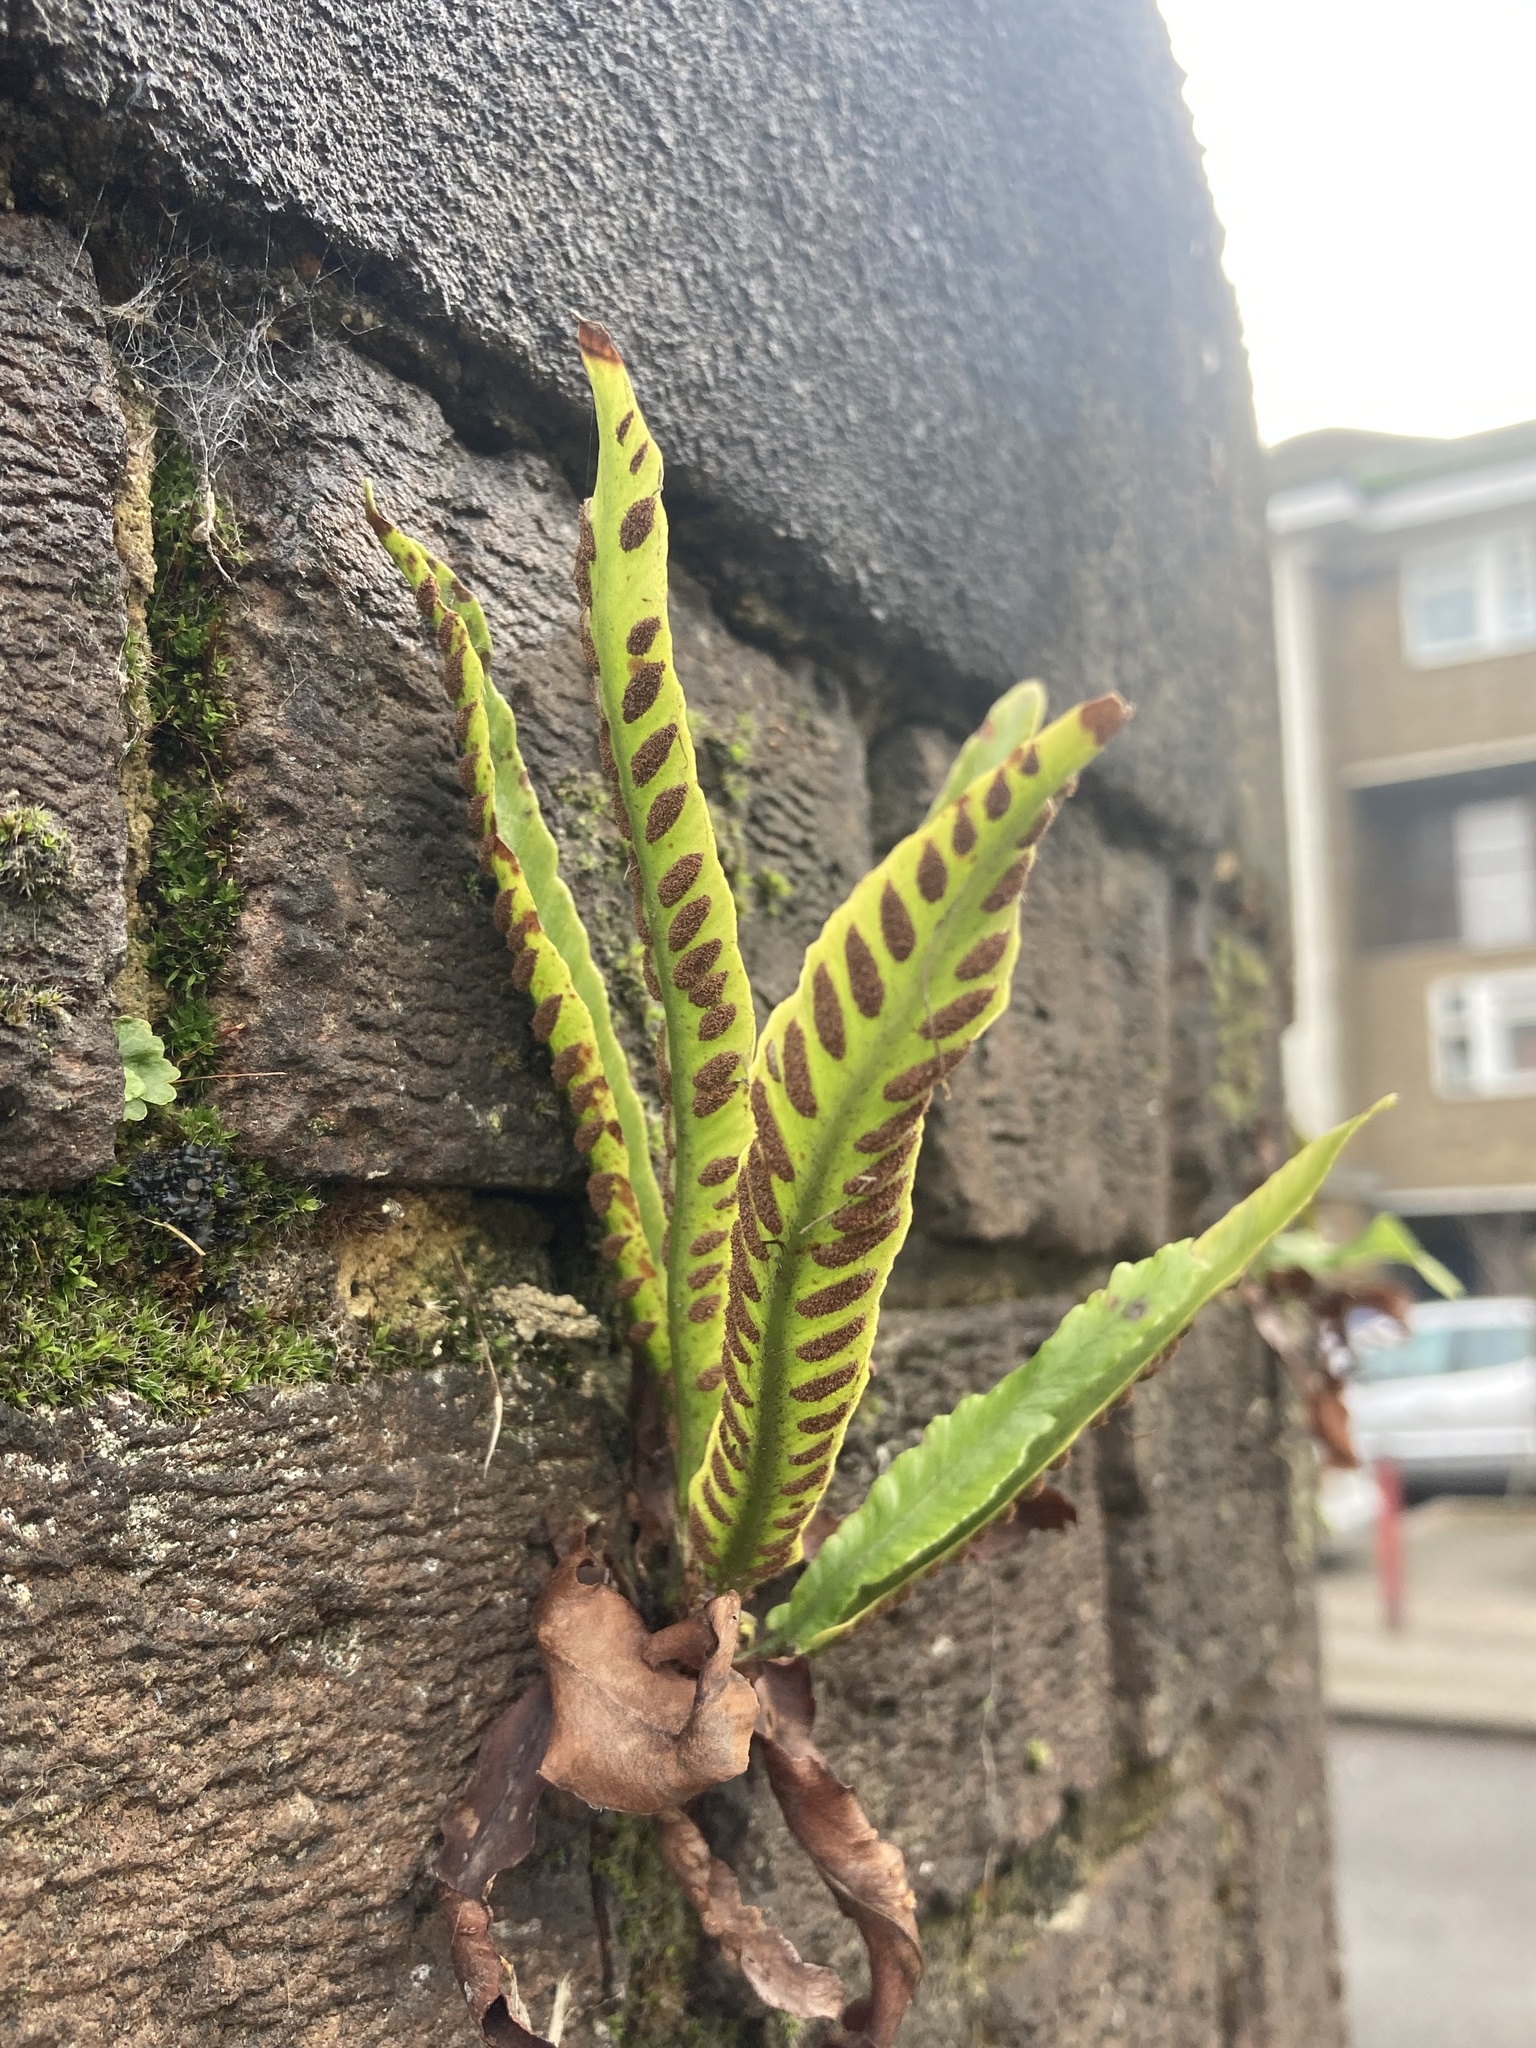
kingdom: Plantae
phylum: Tracheophyta
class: Polypodiopsida
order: Polypodiales
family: Aspleniaceae
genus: Asplenium
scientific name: Asplenium scolopendrium
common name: Hart's-tongue fern
